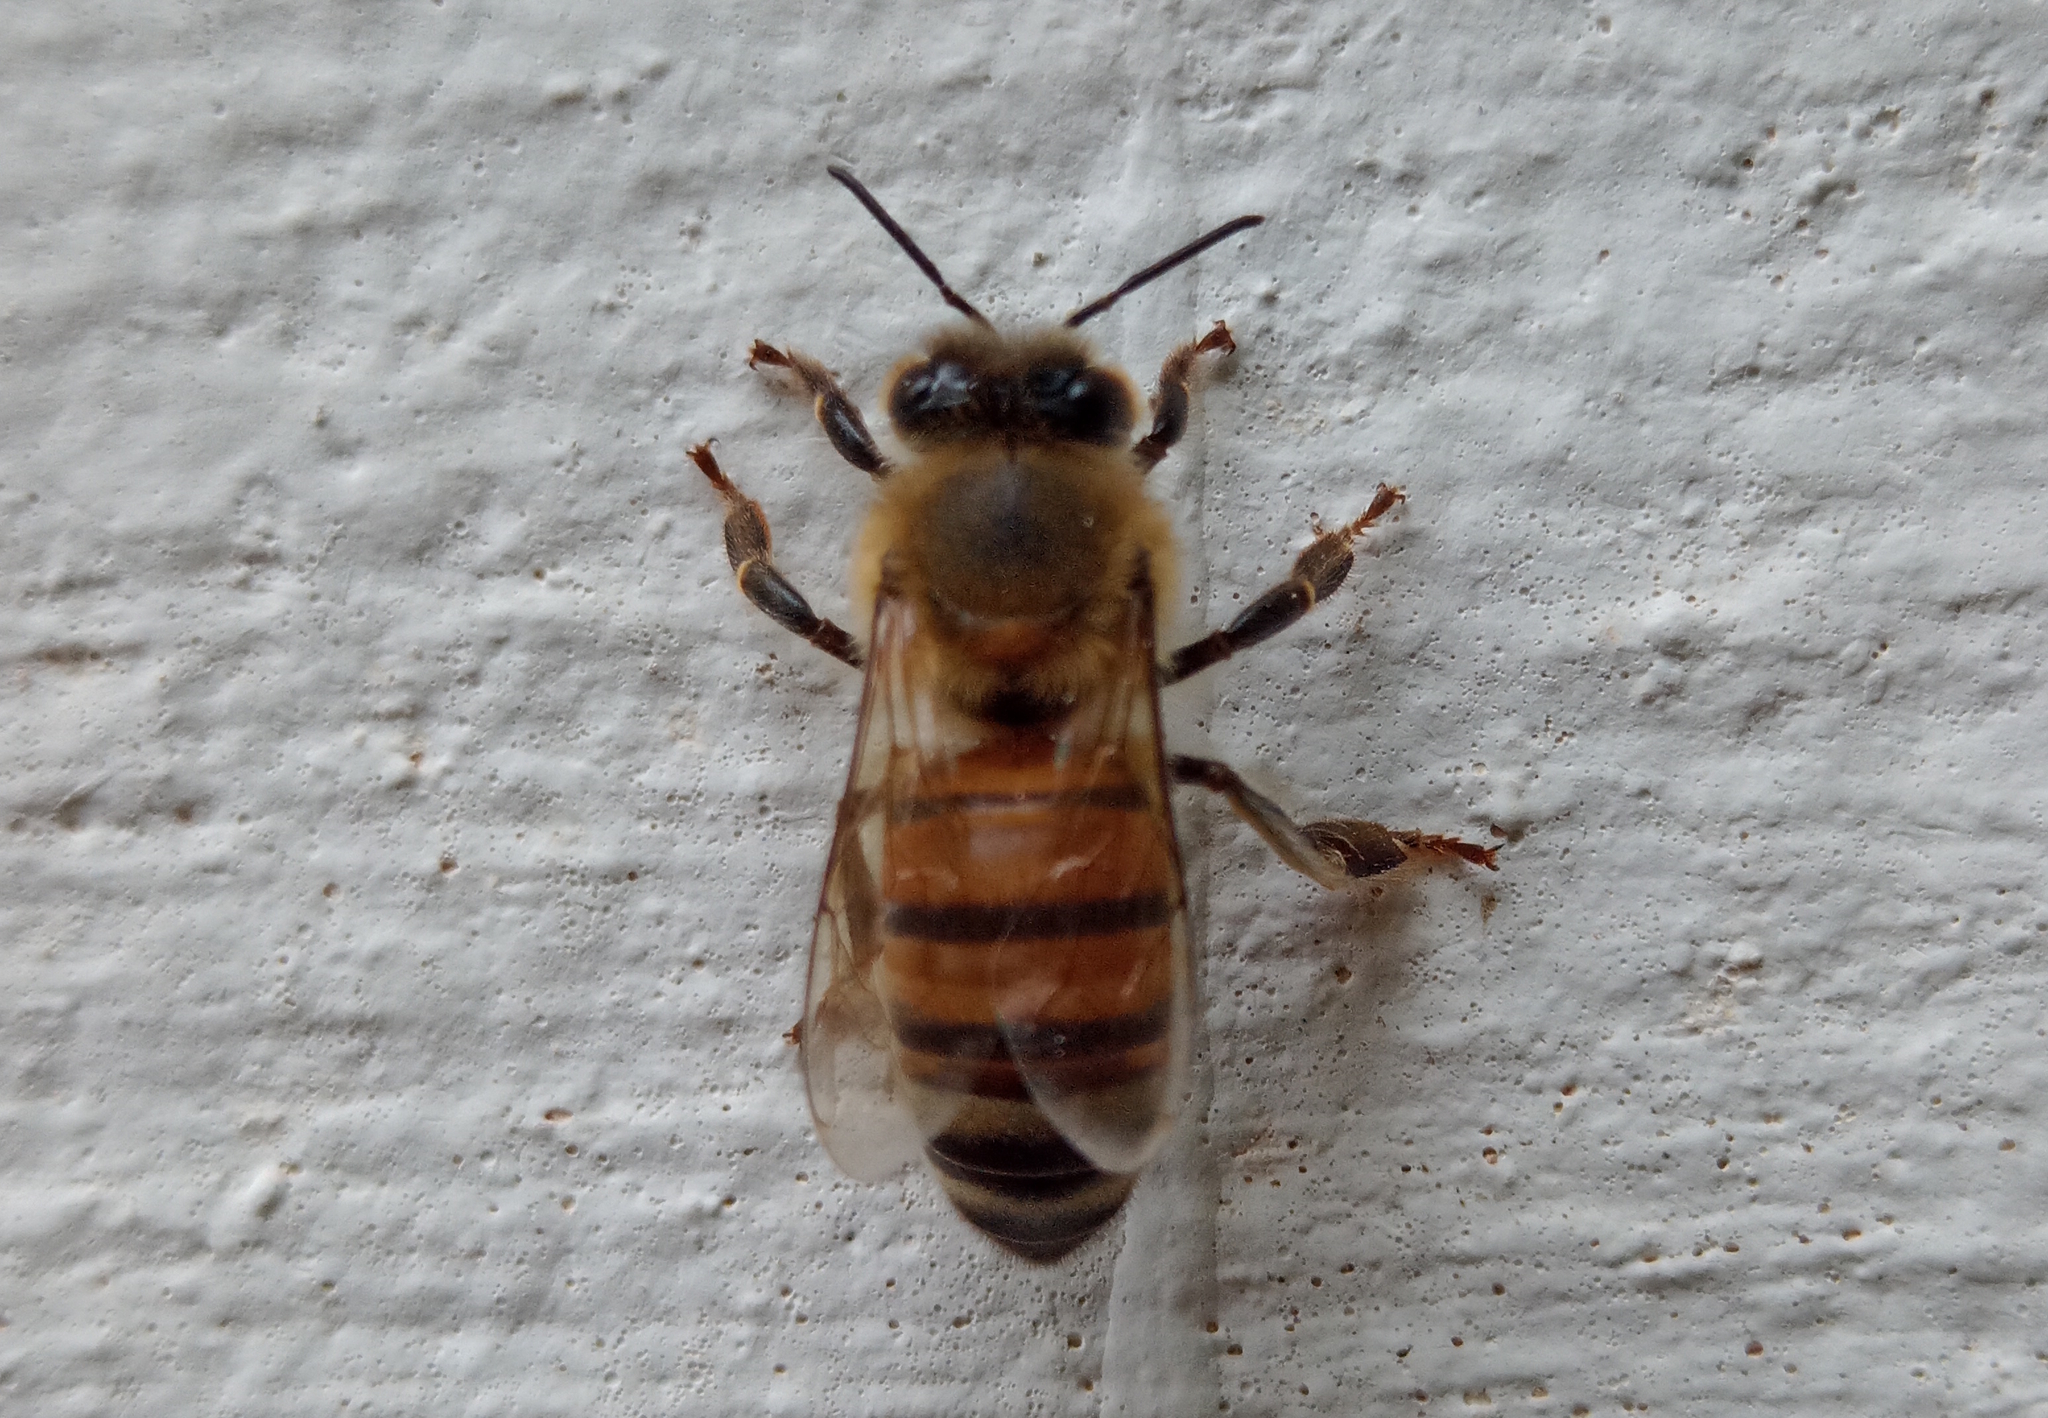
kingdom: Animalia
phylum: Arthropoda
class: Insecta
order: Hymenoptera
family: Apidae
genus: Apis
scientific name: Apis mellifera
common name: Honey bee
